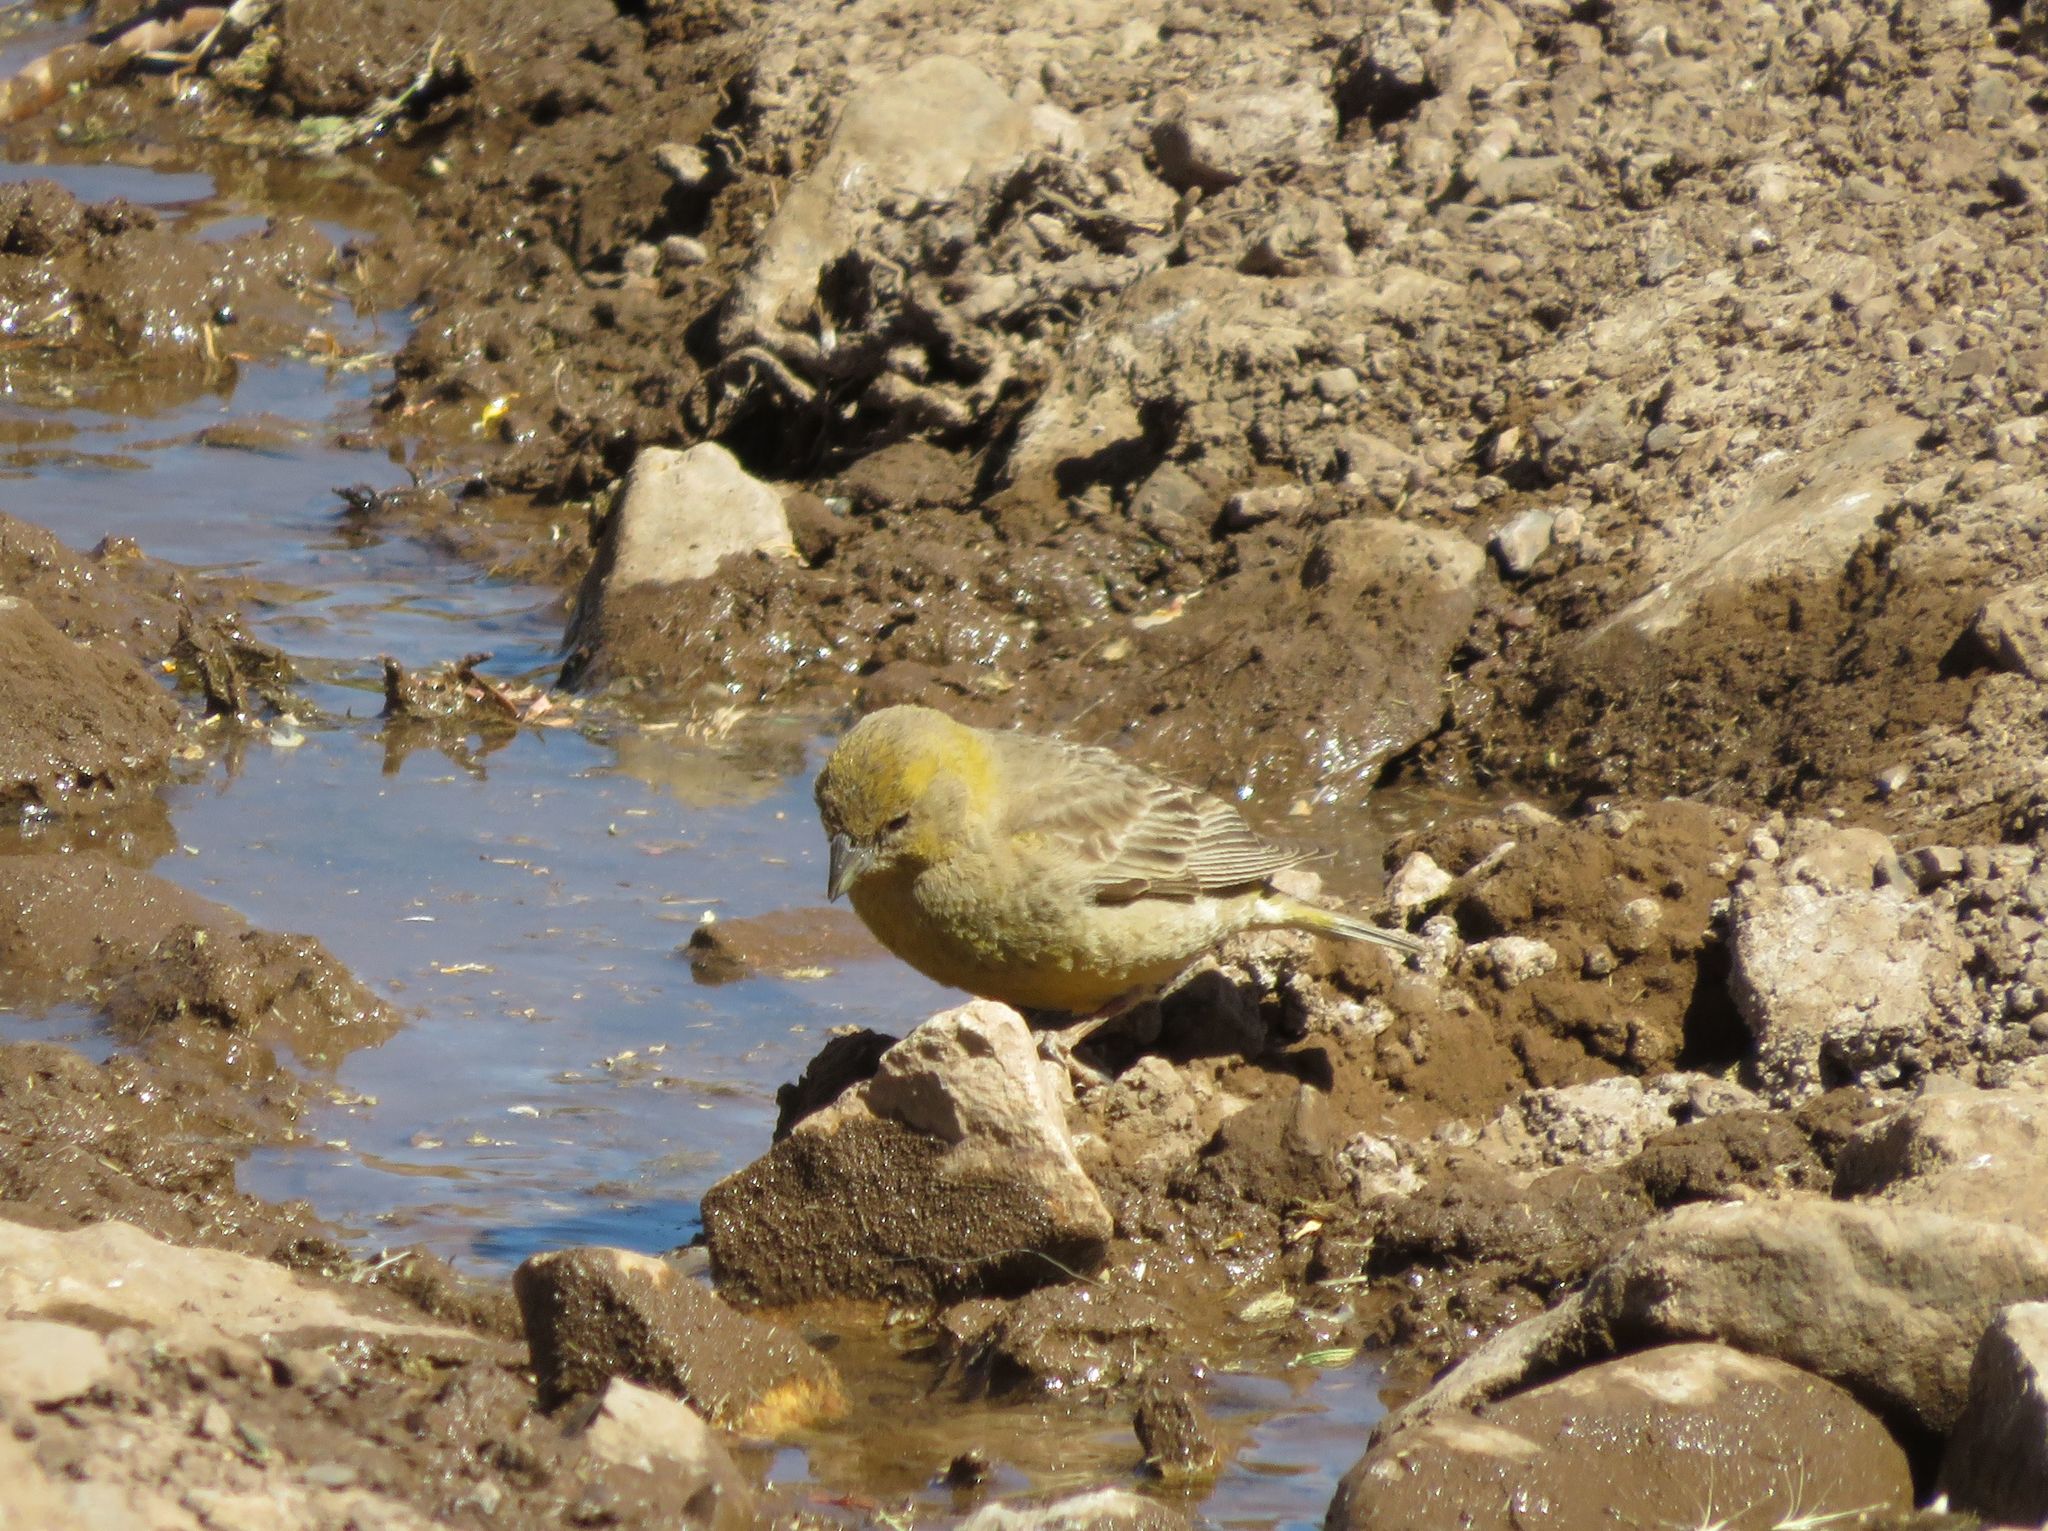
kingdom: Animalia
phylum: Chordata
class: Aves
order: Passeriformes
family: Thraupidae
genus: Sicalis
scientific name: Sicalis auriventris
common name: Greater yellow finch
